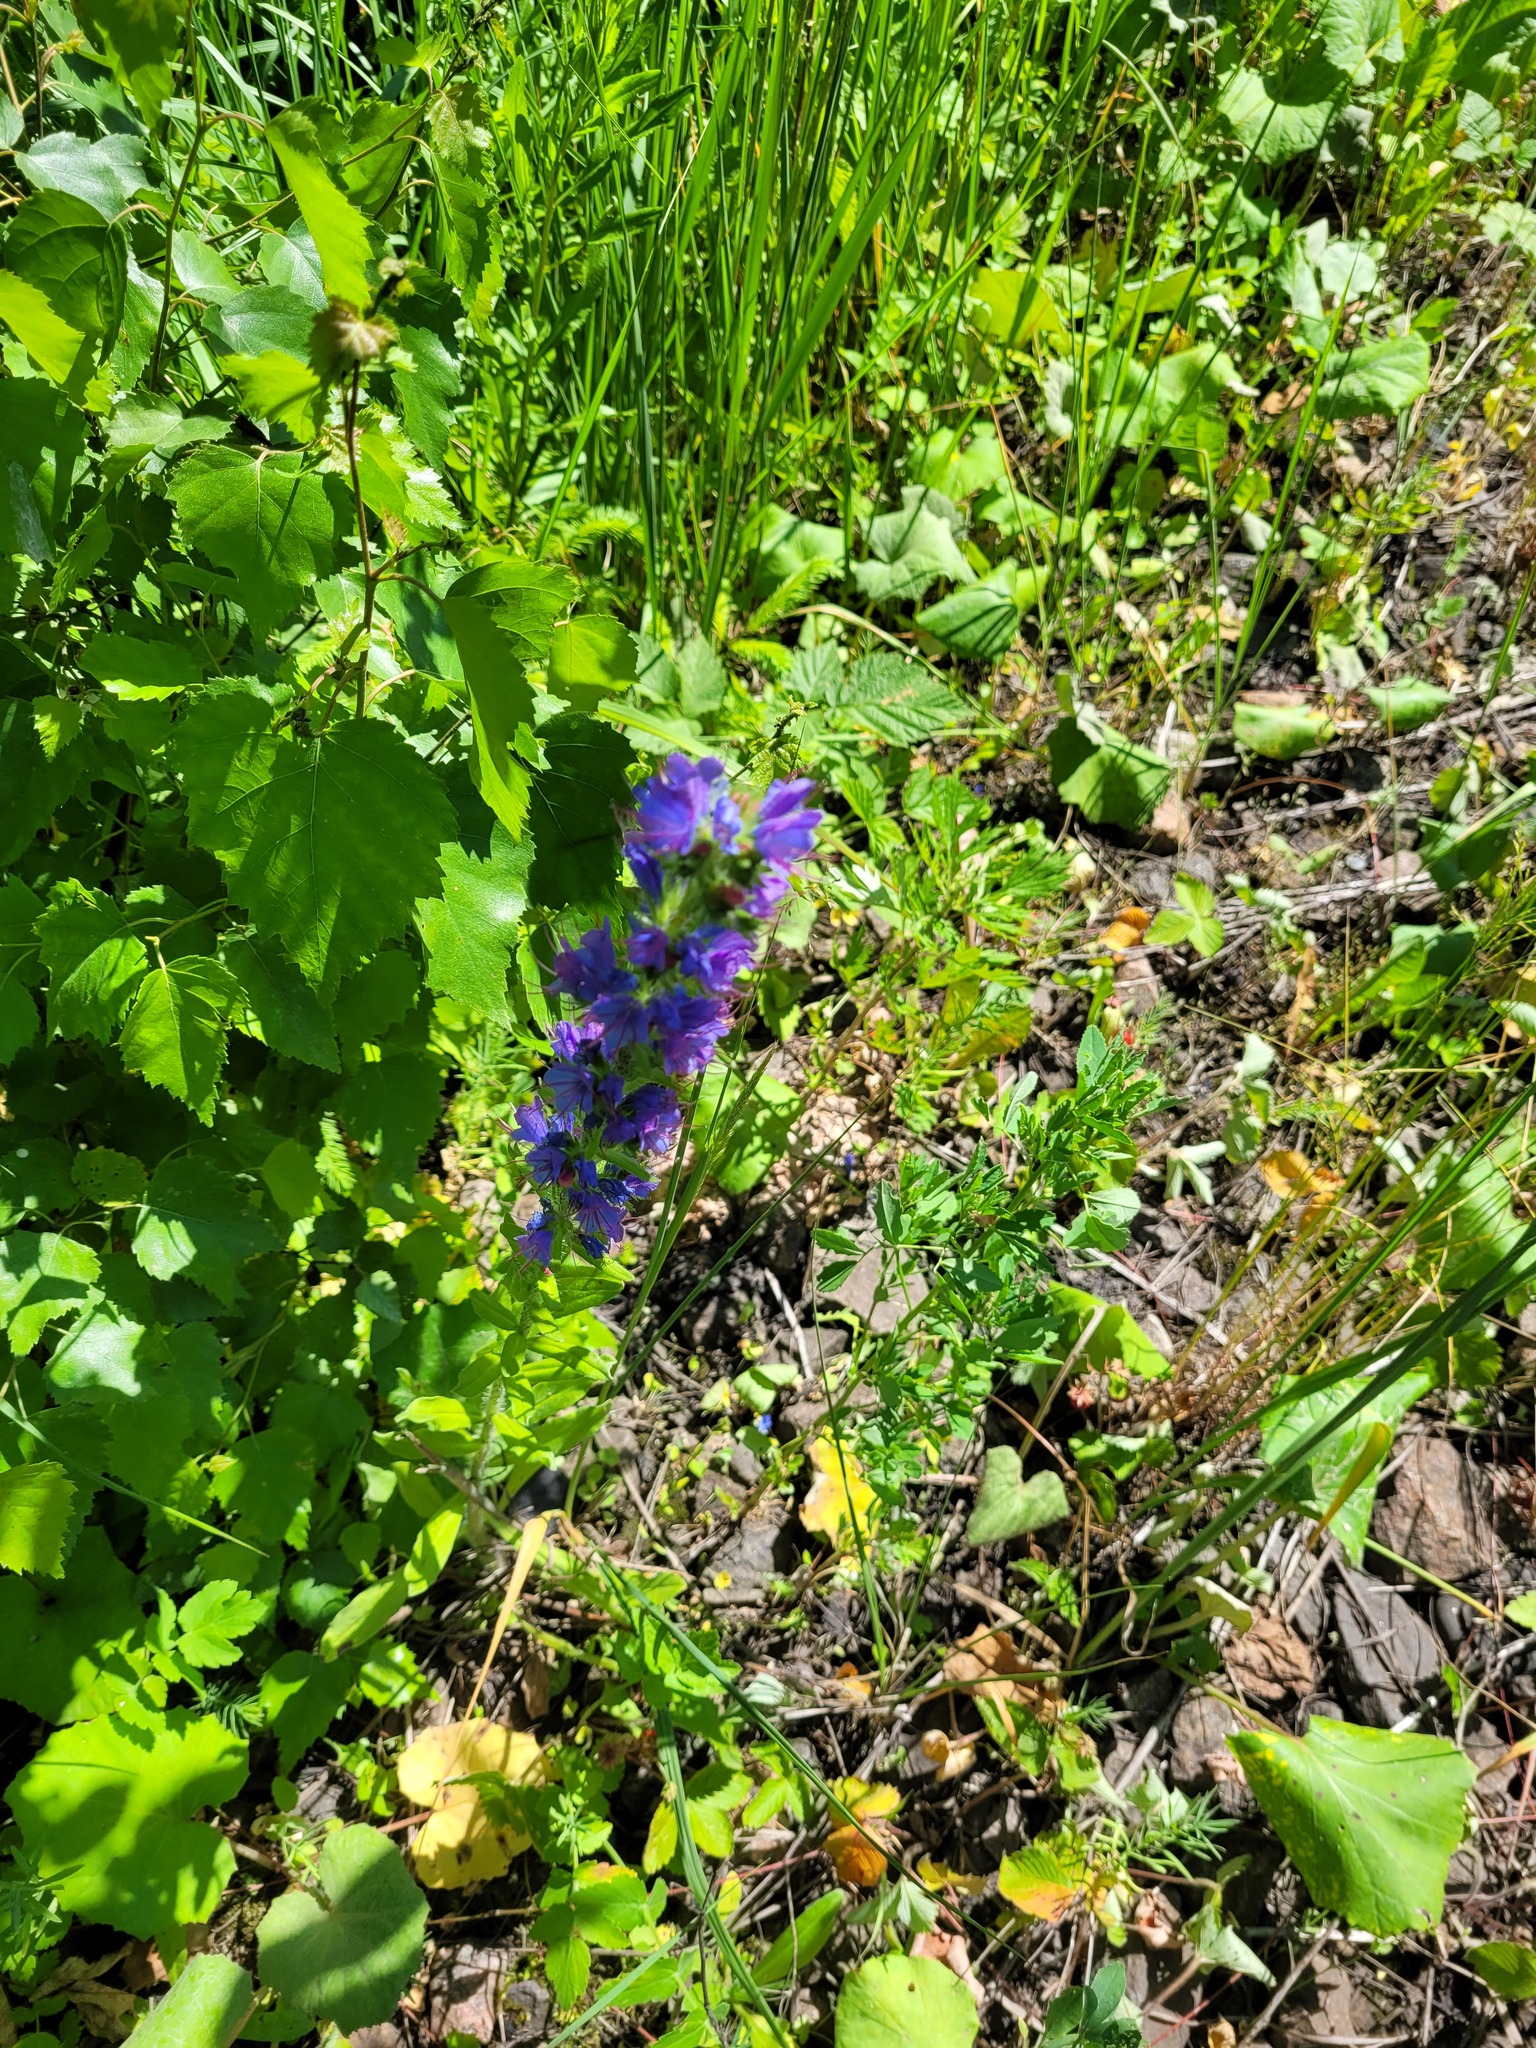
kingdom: Plantae
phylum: Tracheophyta
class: Magnoliopsida
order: Boraginales
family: Boraginaceae
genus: Echium
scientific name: Echium vulgare
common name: Common viper's bugloss
